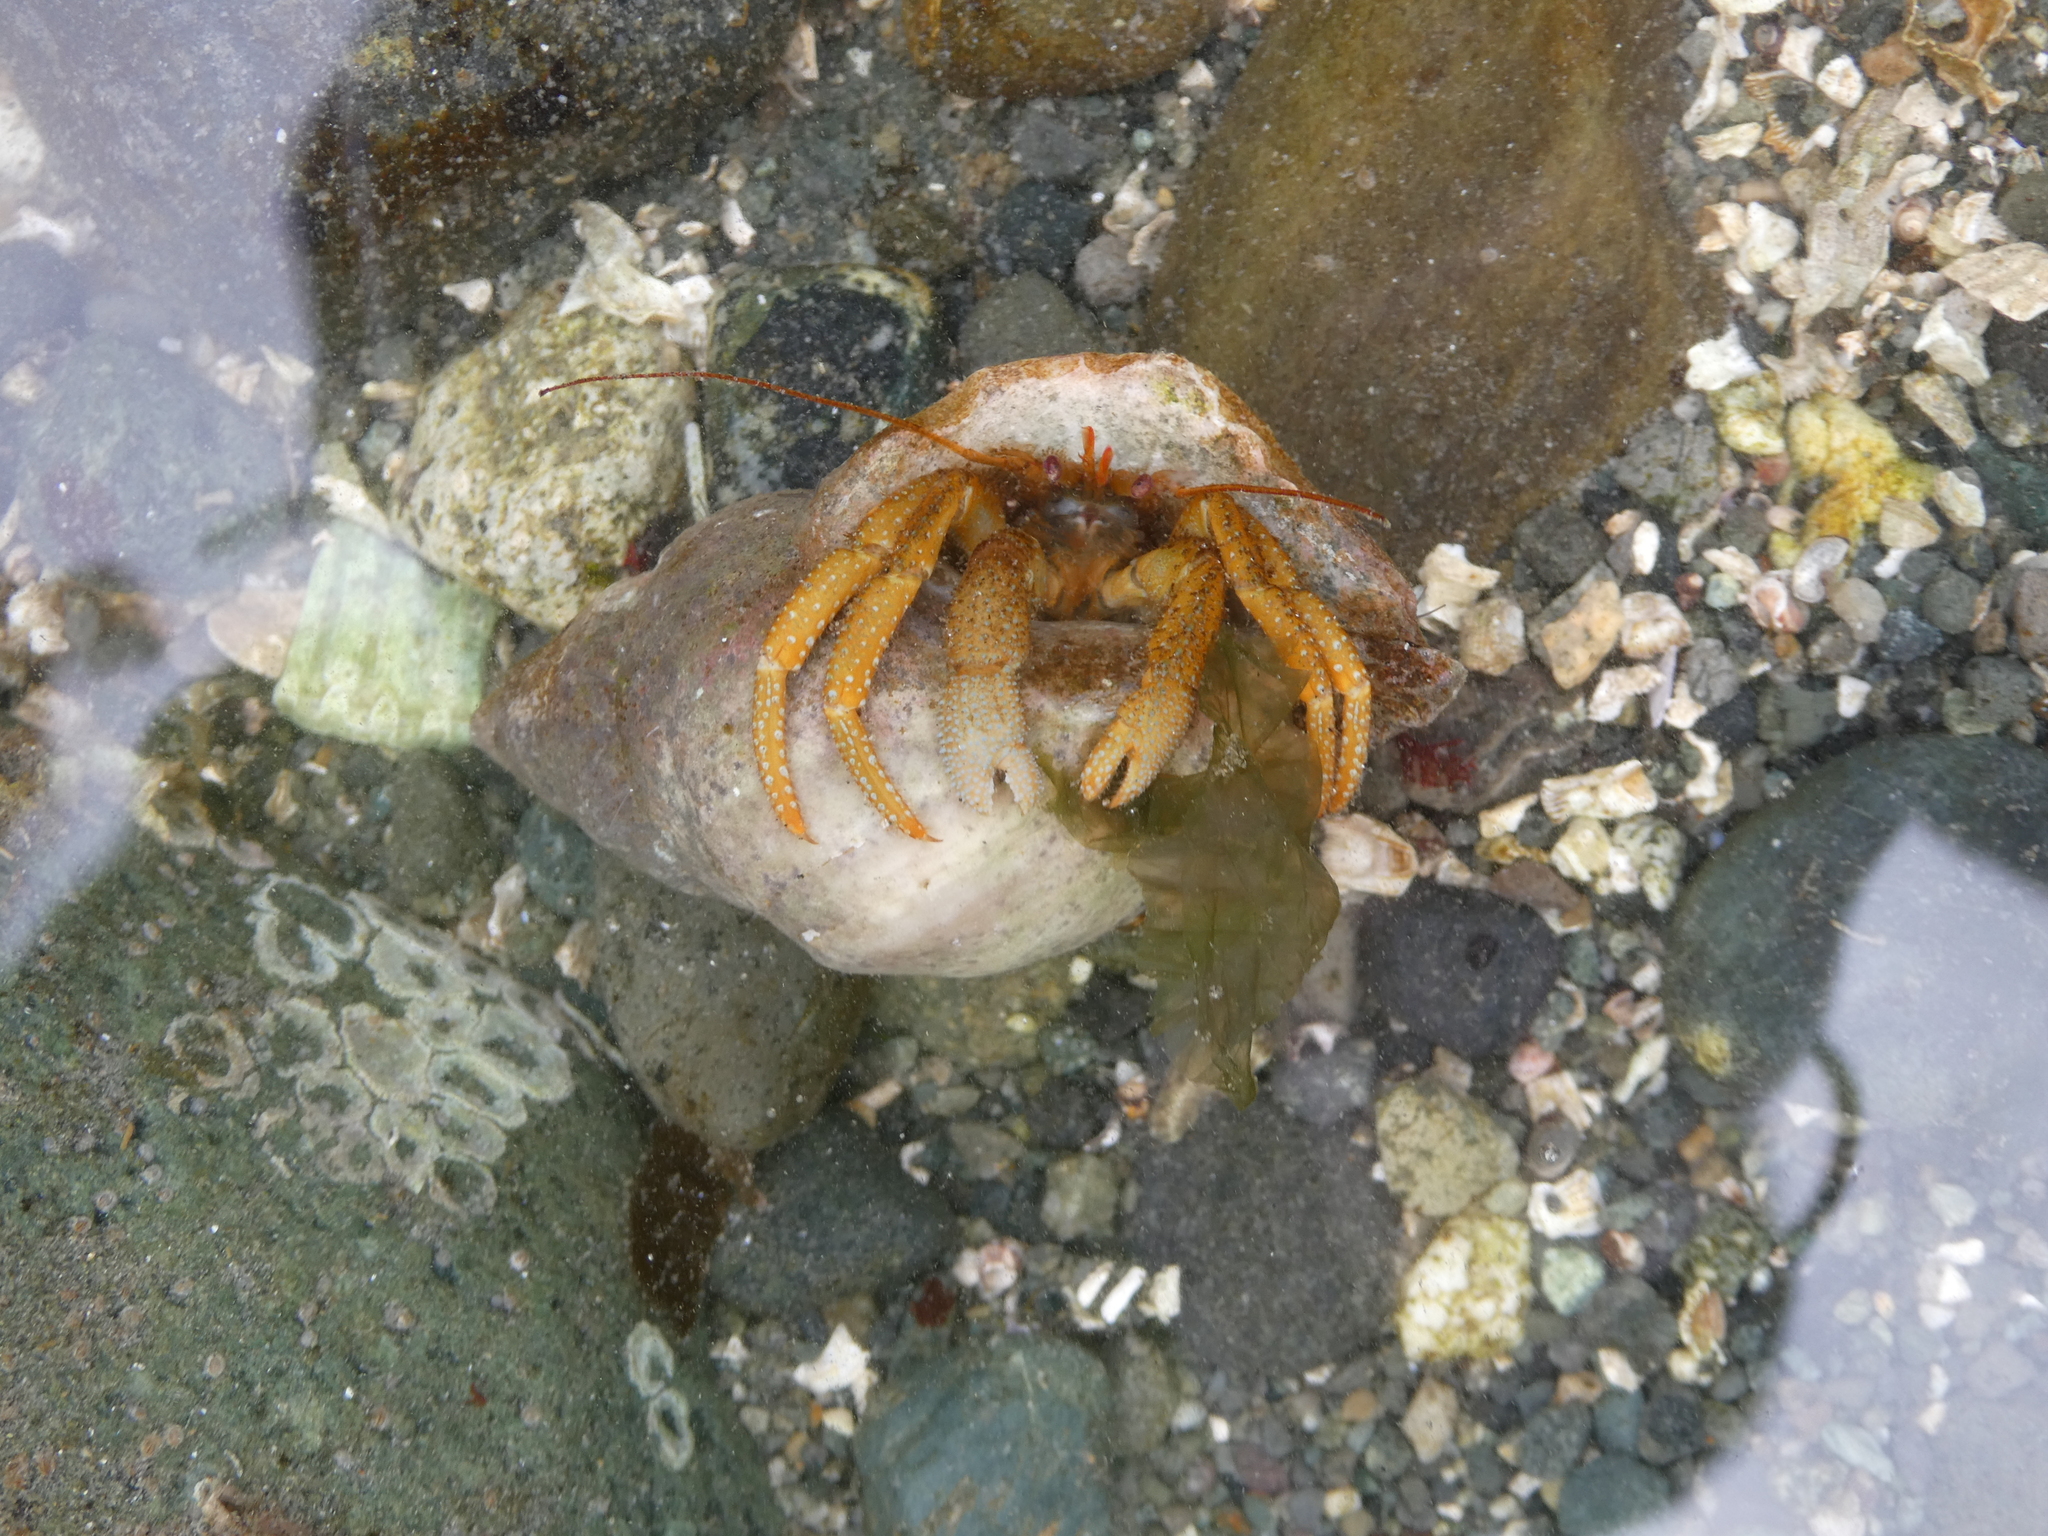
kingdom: Animalia
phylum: Arthropoda
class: Malacostraca
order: Decapoda
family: Paguridae
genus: Pagurus
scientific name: Pagurus granosimanus
